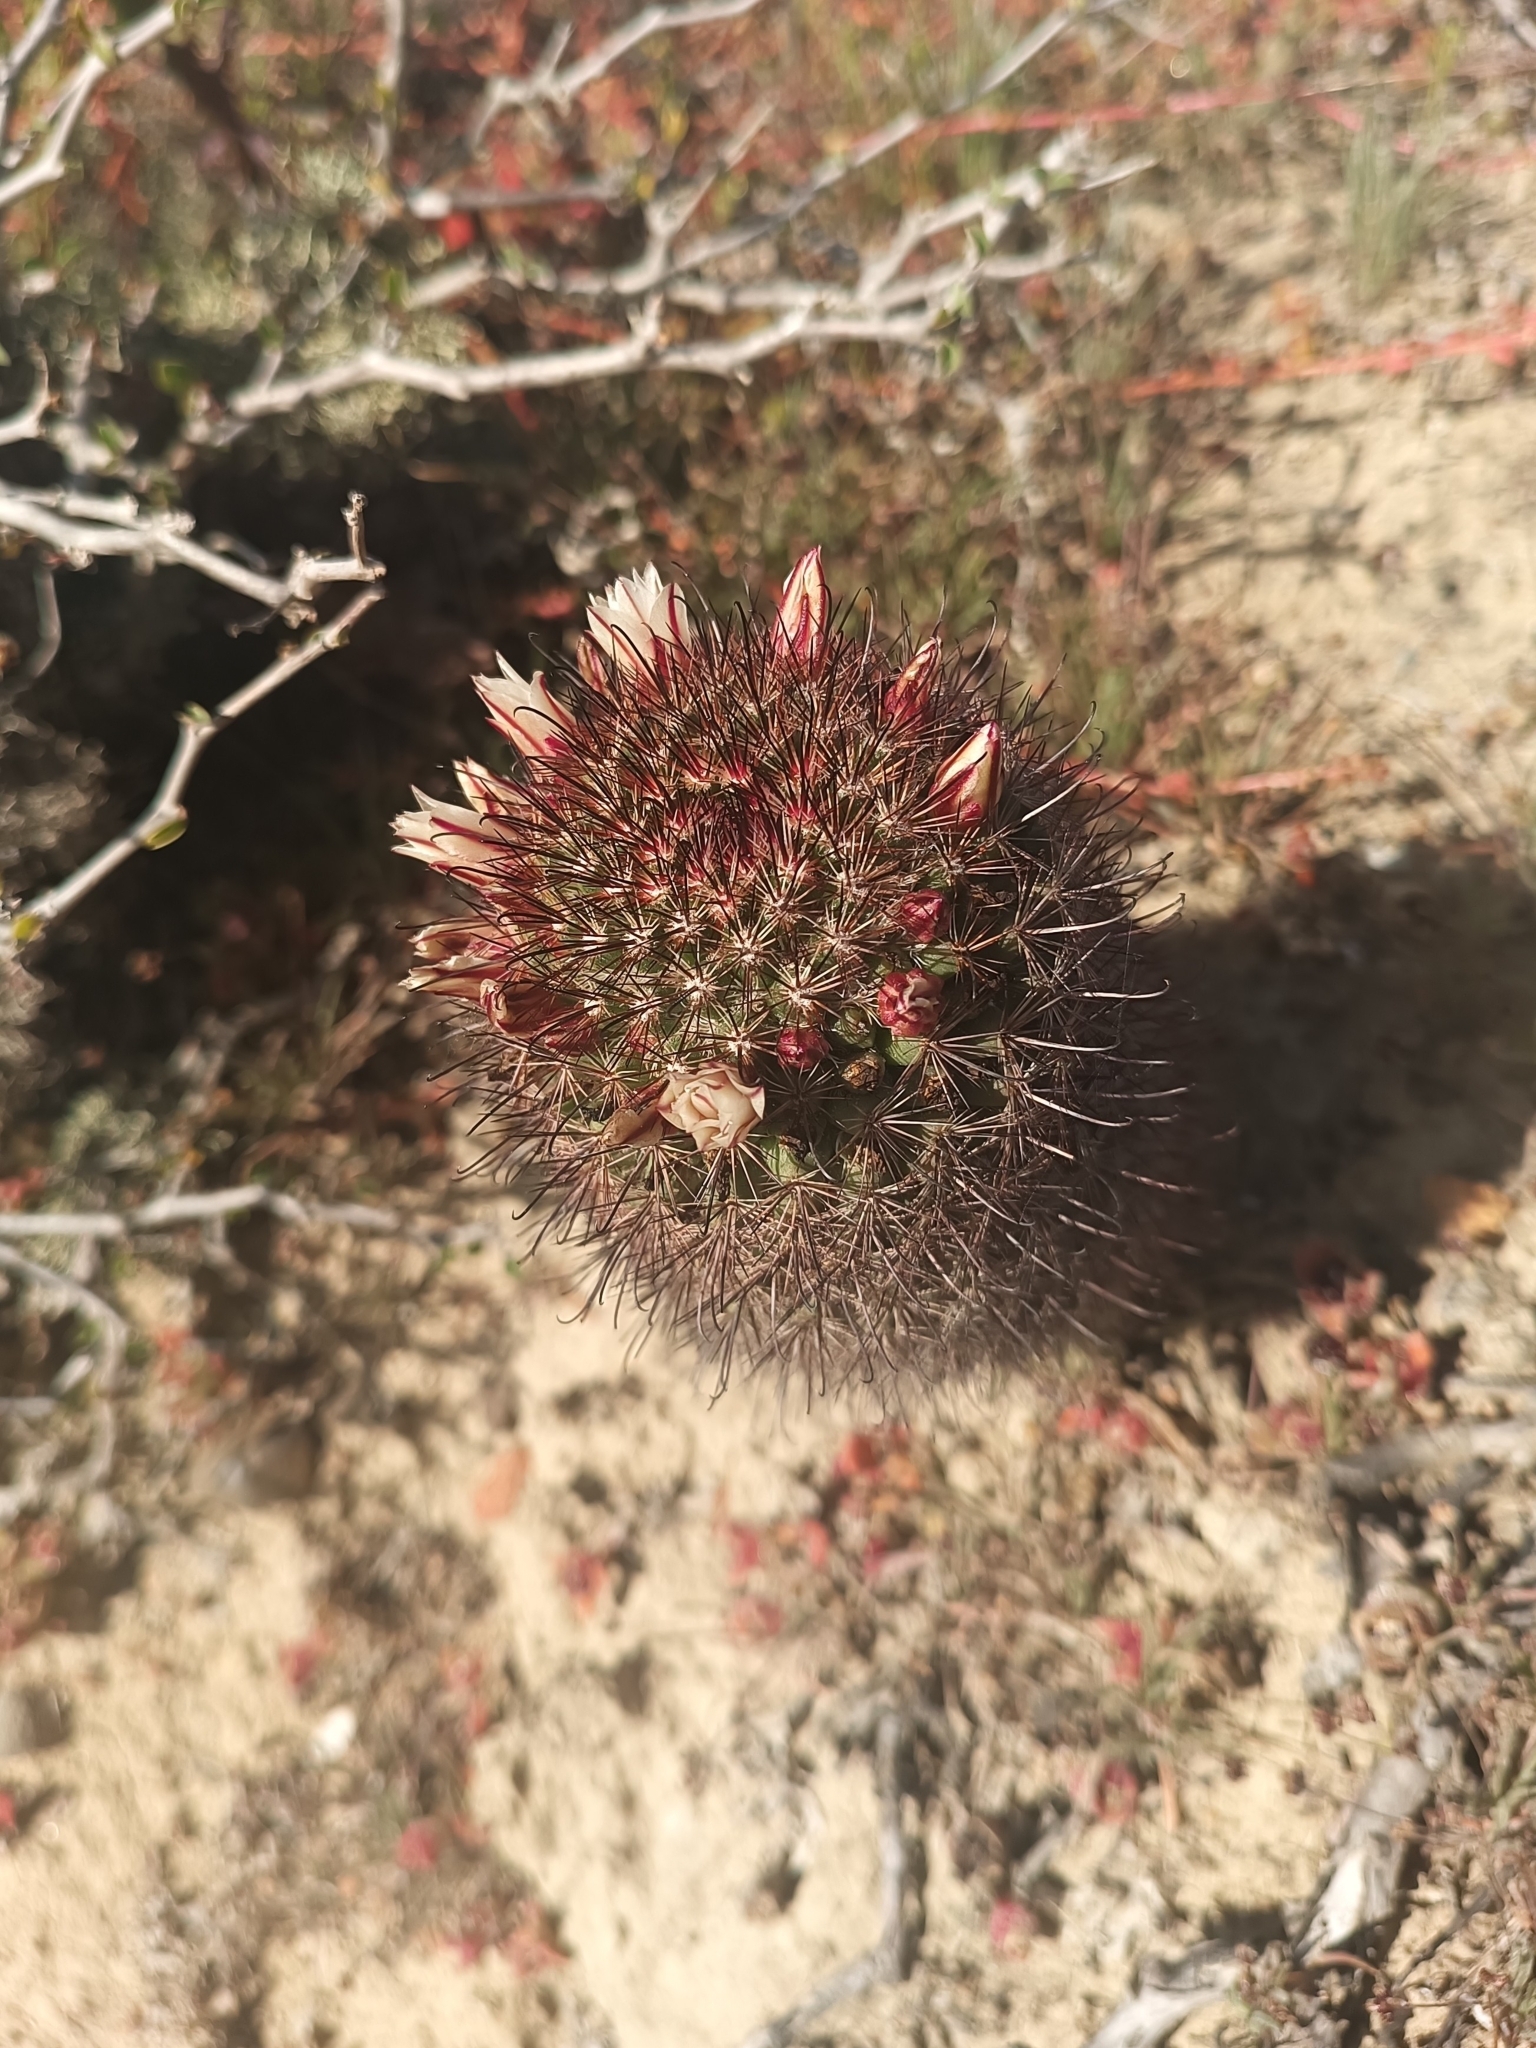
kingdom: Plantae
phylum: Tracheophyta
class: Magnoliopsida
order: Caryophyllales
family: Cactaceae
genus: Cochemiea
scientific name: Cochemiea dioica
